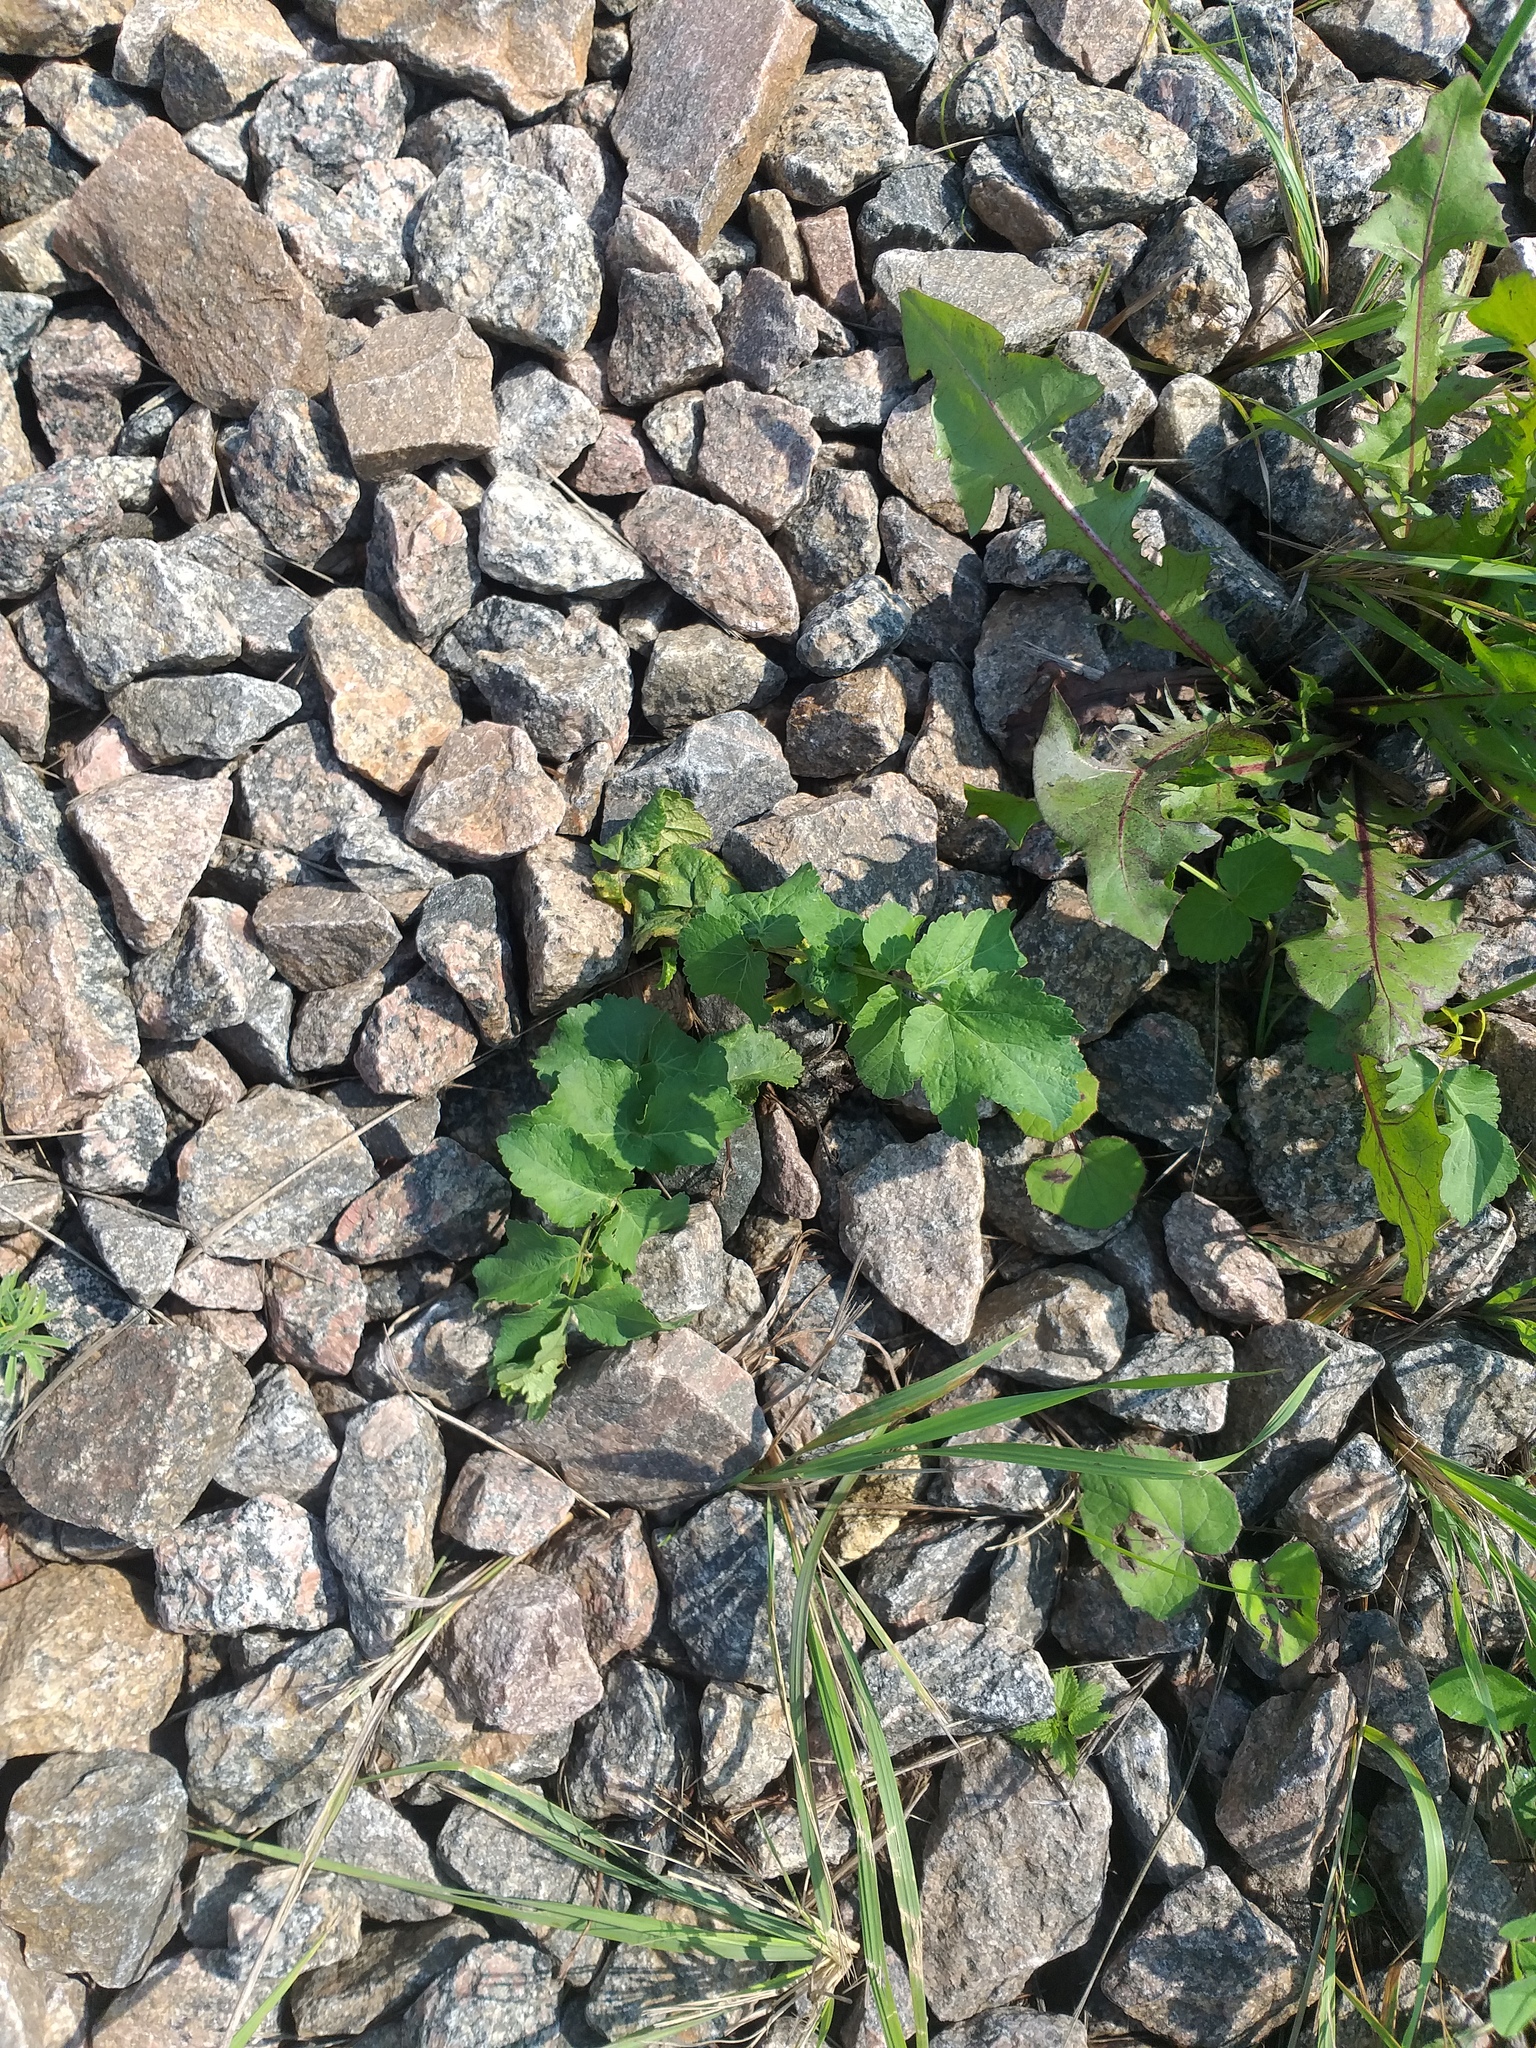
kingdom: Plantae
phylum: Tracheophyta
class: Magnoliopsida
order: Apiales
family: Apiaceae
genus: Pastinaca
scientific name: Pastinaca sativa
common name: Wild parsnip
